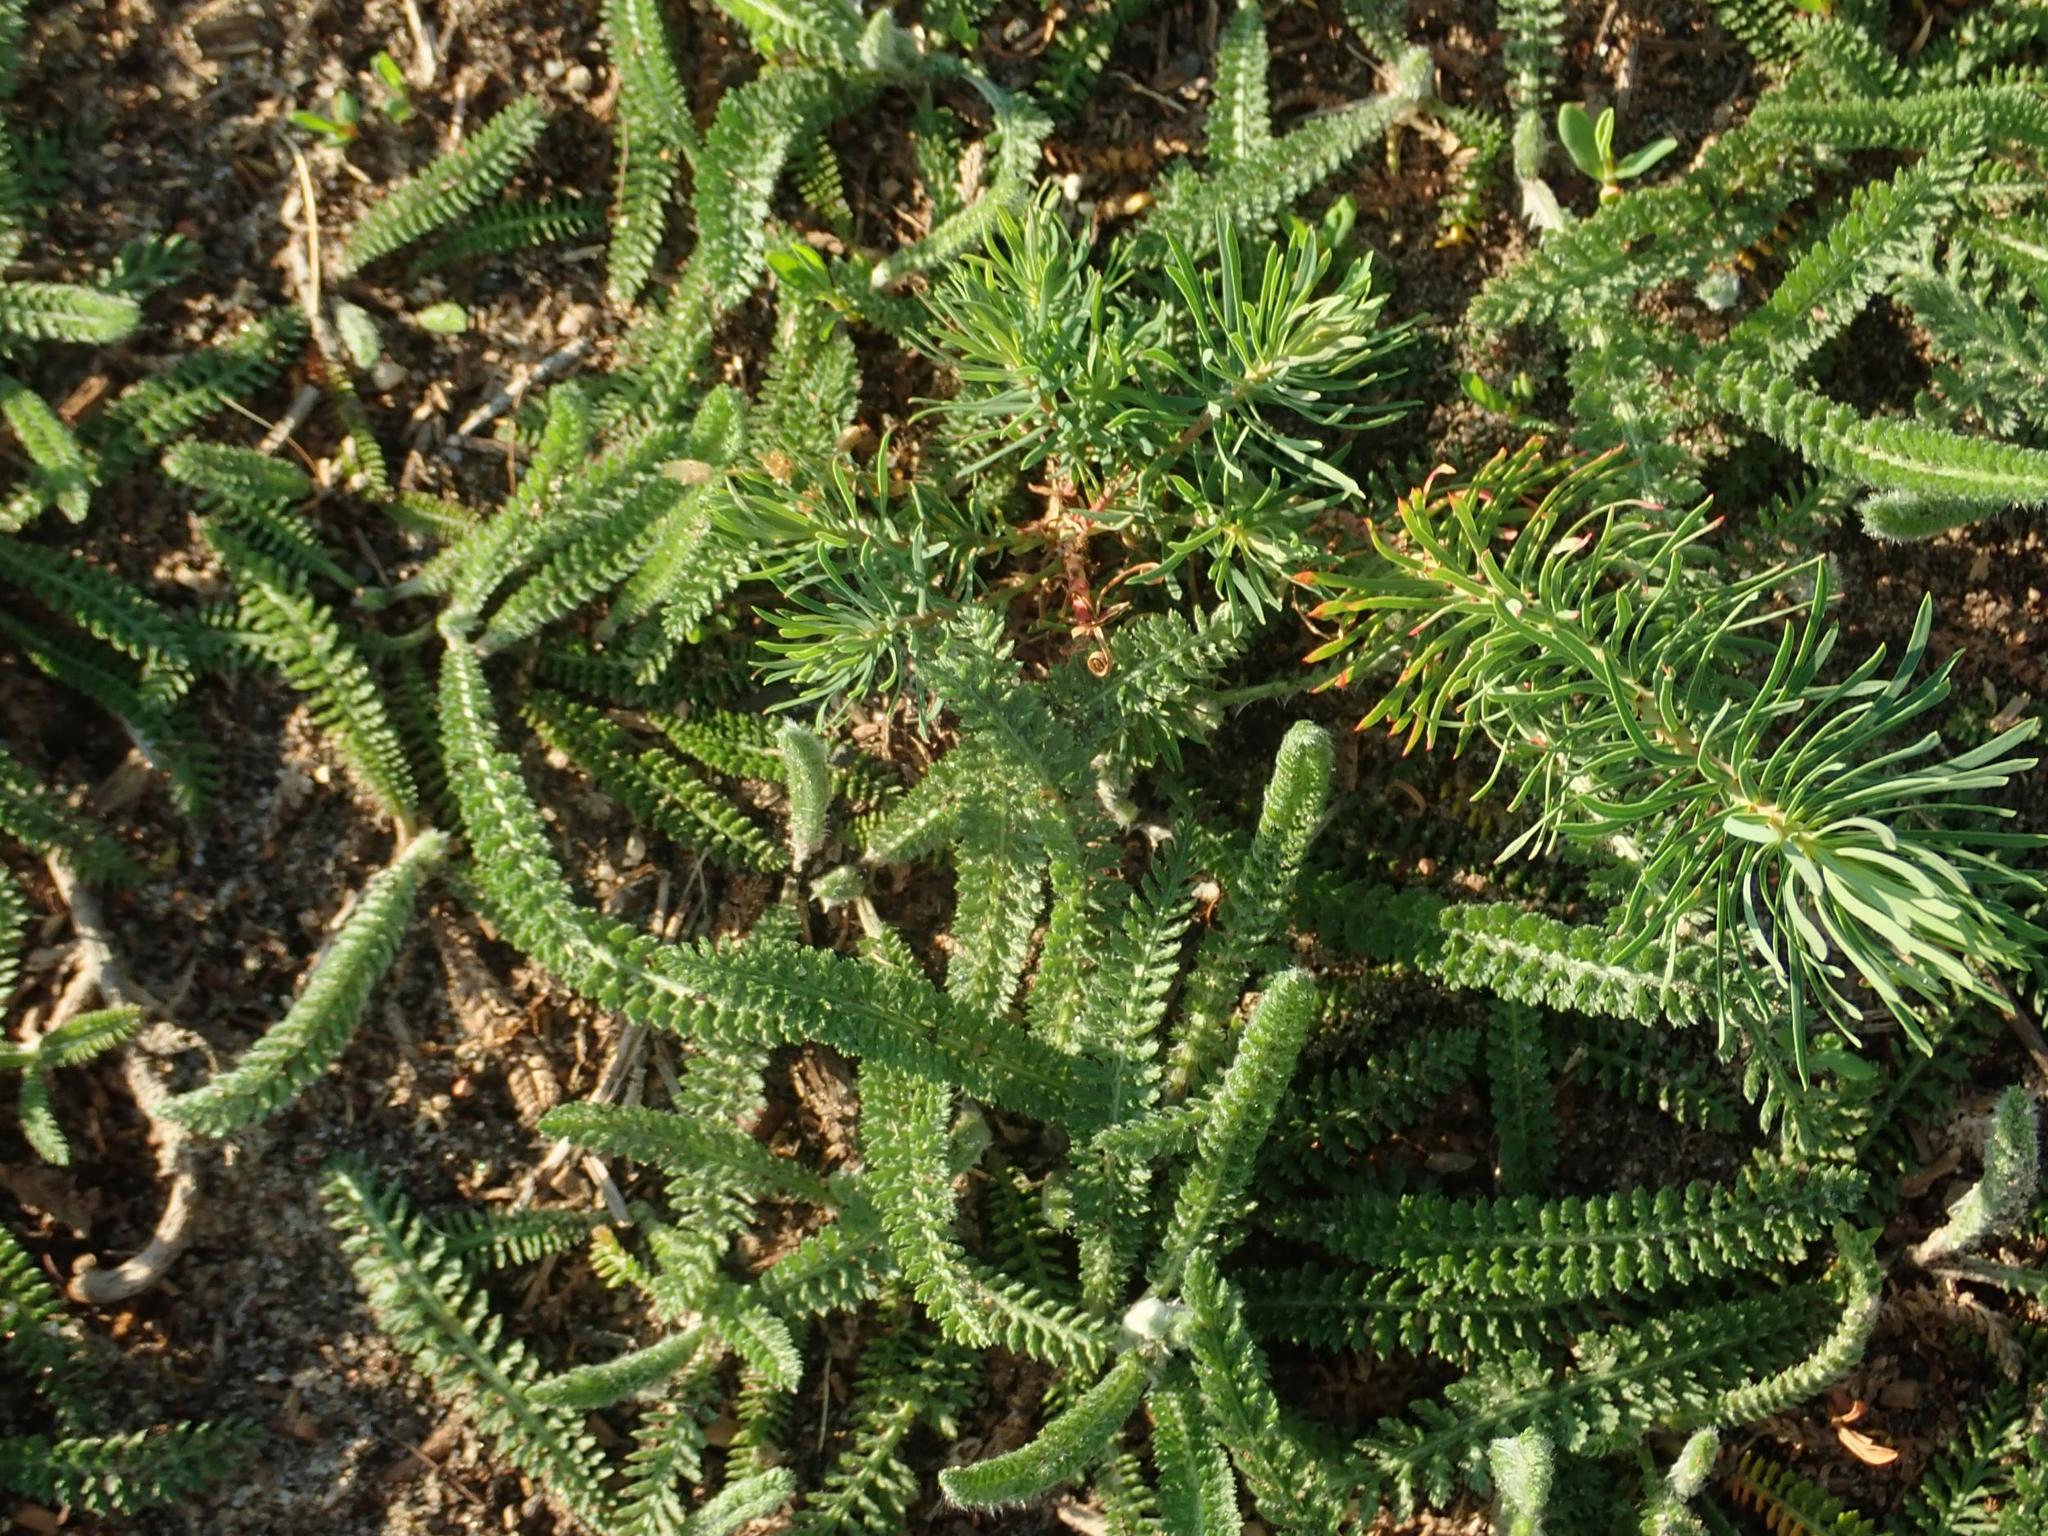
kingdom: Plantae
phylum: Tracheophyta
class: Magnoliopsida
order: Asterales
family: Asteraceae
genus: Achillea
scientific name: Achillea millefolium
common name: Yarrow
